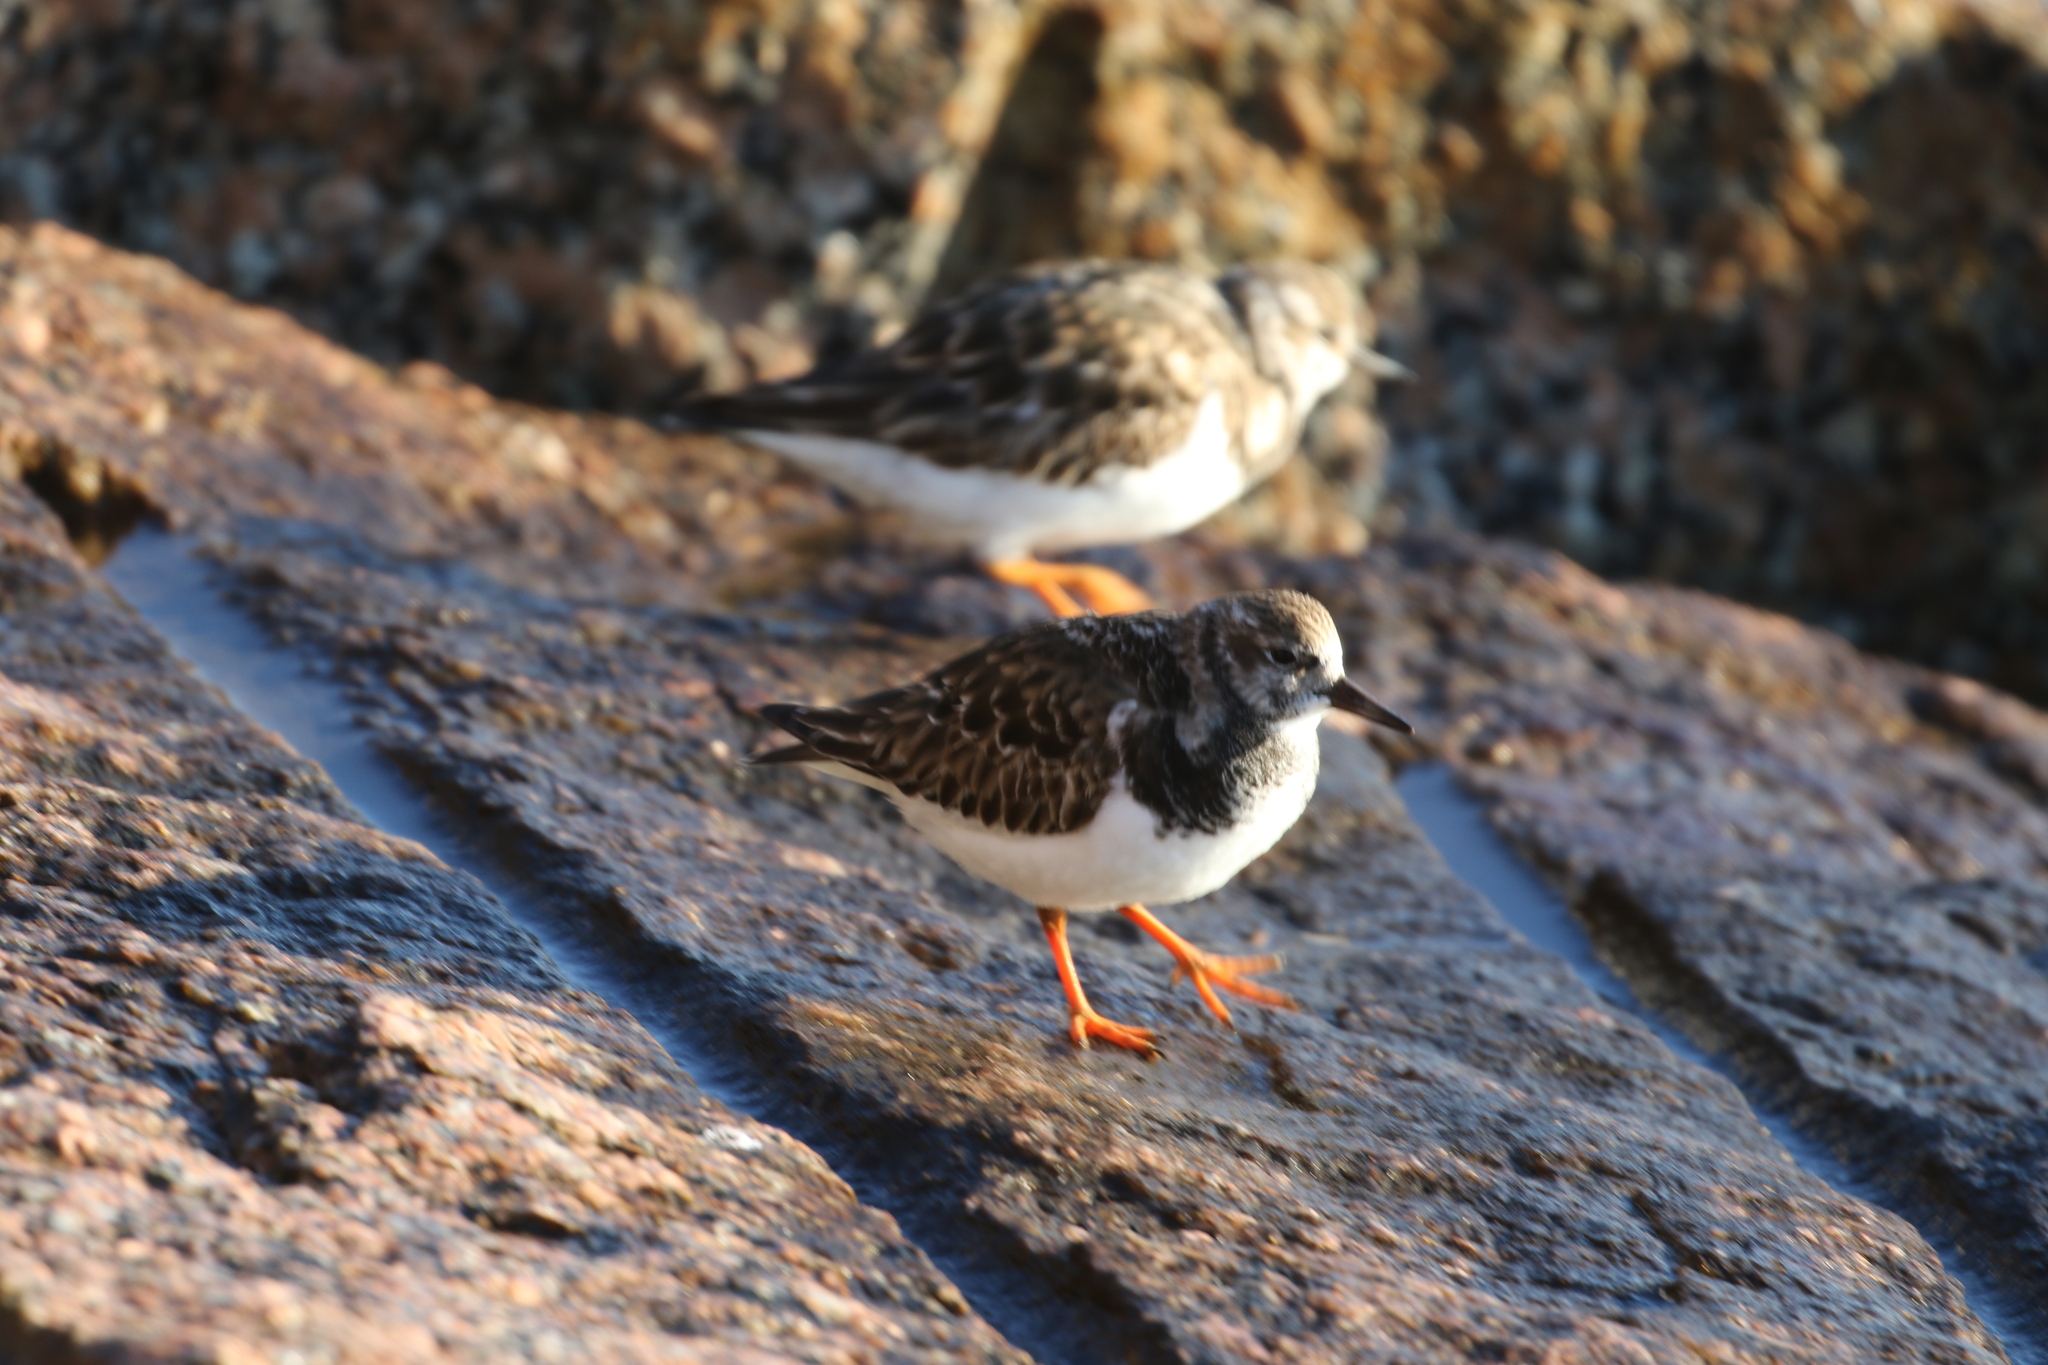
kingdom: Animalia
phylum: Chordata
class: Aves
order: Charadriiformes
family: Scolopacidae
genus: Arenaria
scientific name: Arenaria interpres
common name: Ruddy turnstone
